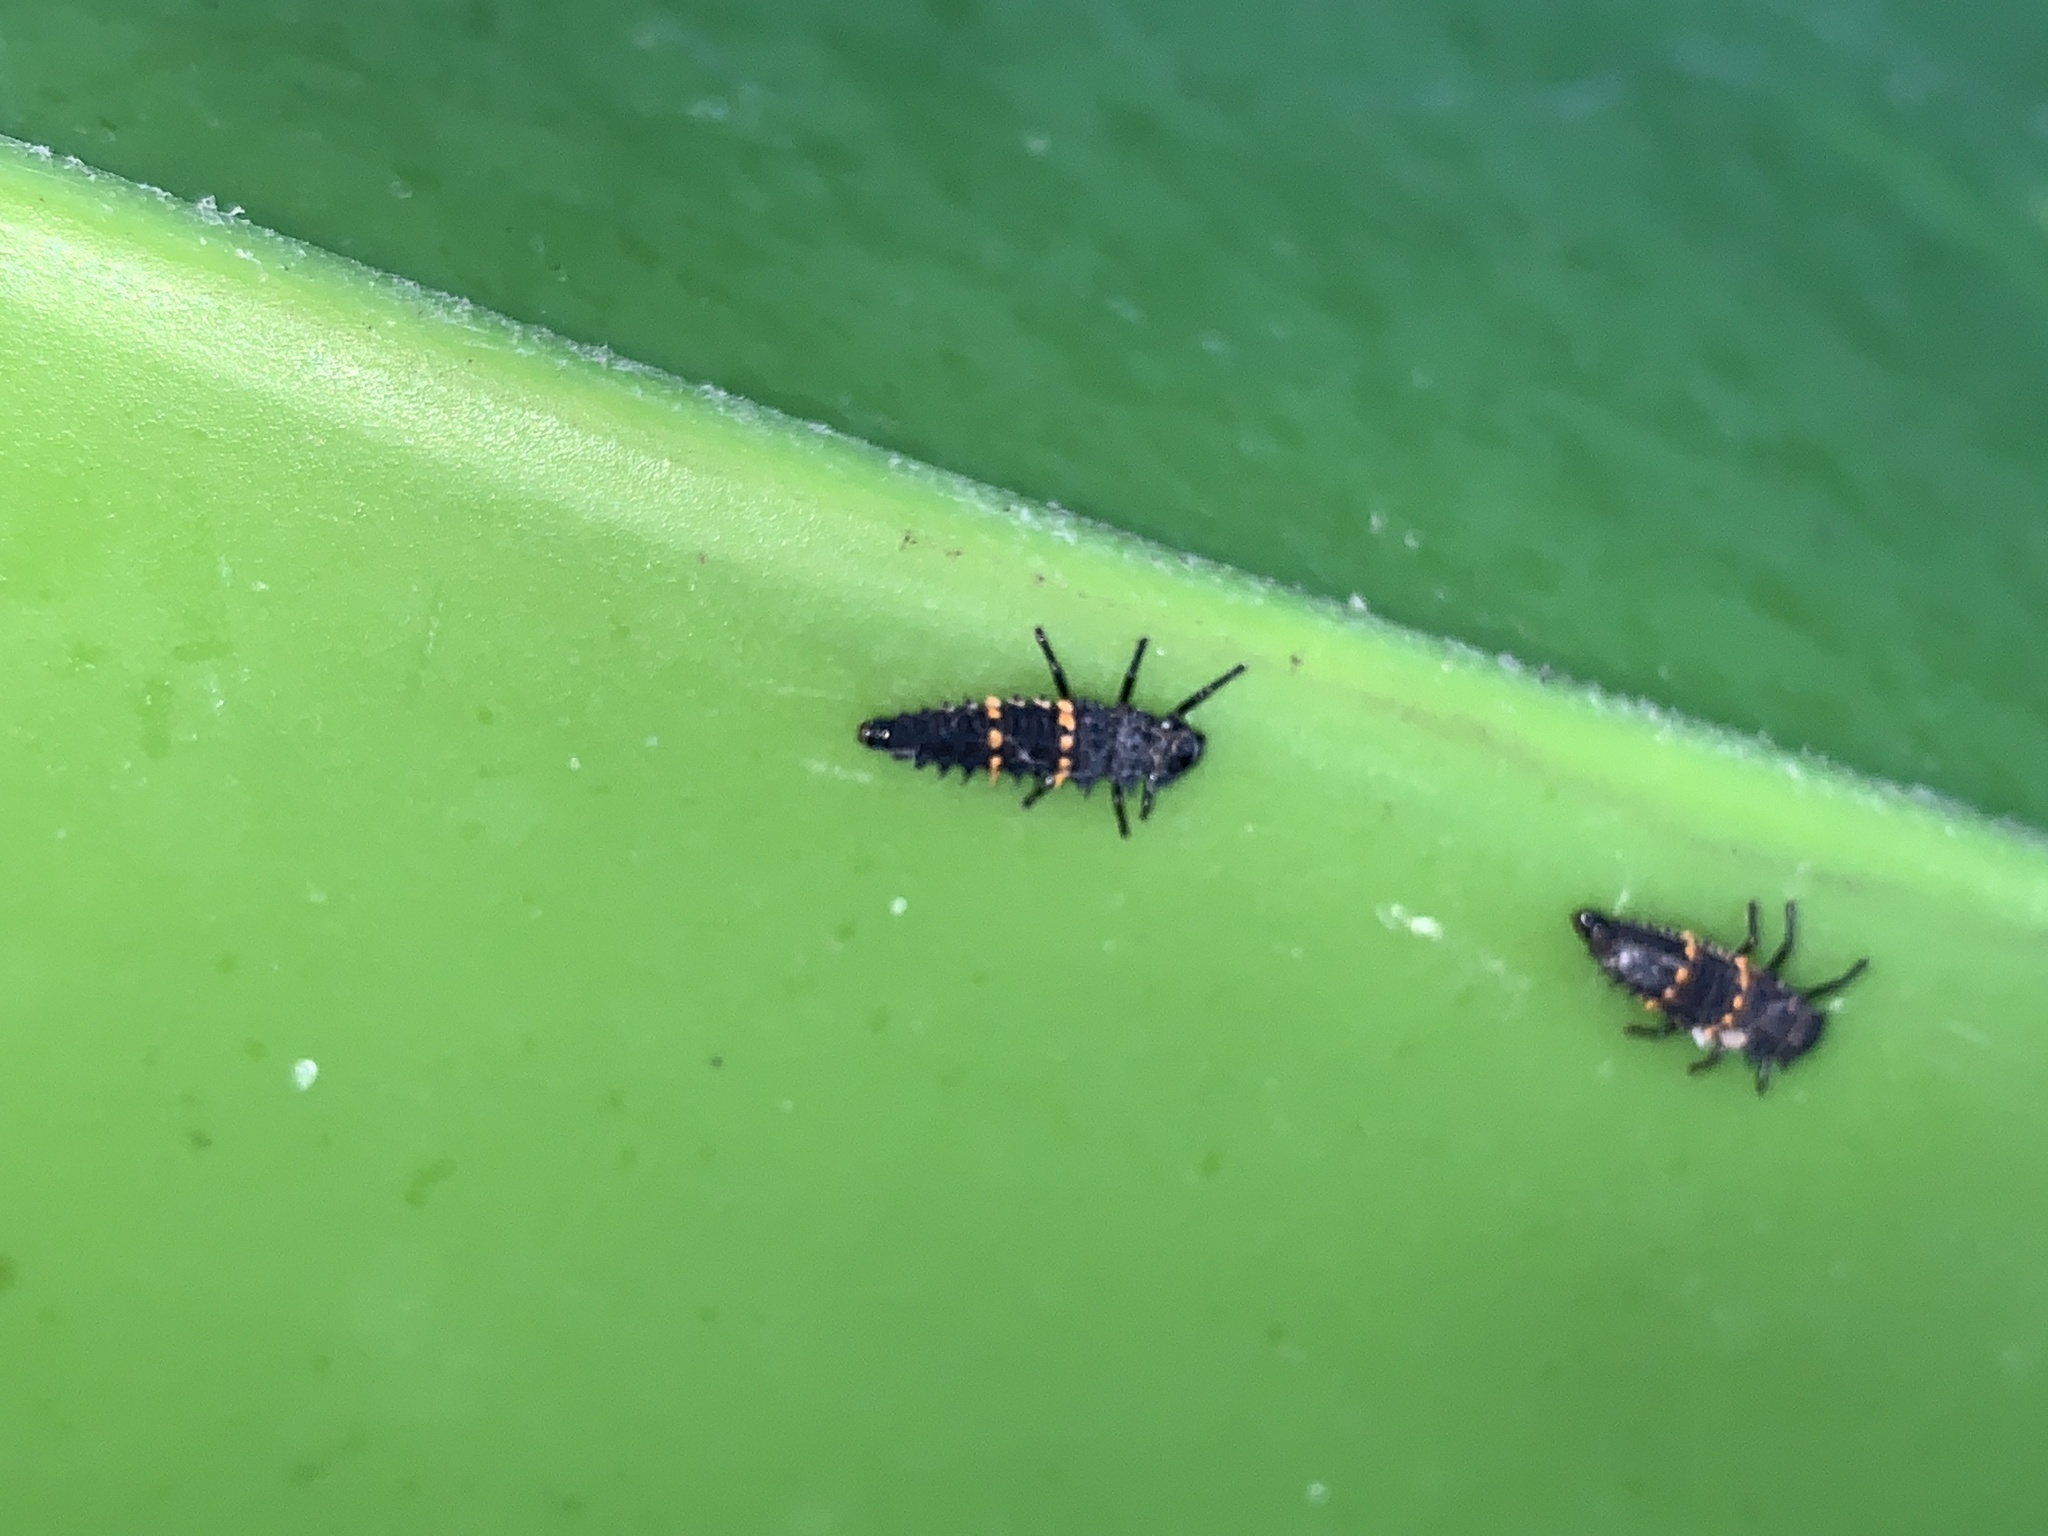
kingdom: Animalia
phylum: Arthropoda
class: Insecta
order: Coleoptera
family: Coccinellidae
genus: Harmonia
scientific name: Harmonia conformis
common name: Common spotted ladybird beetle
